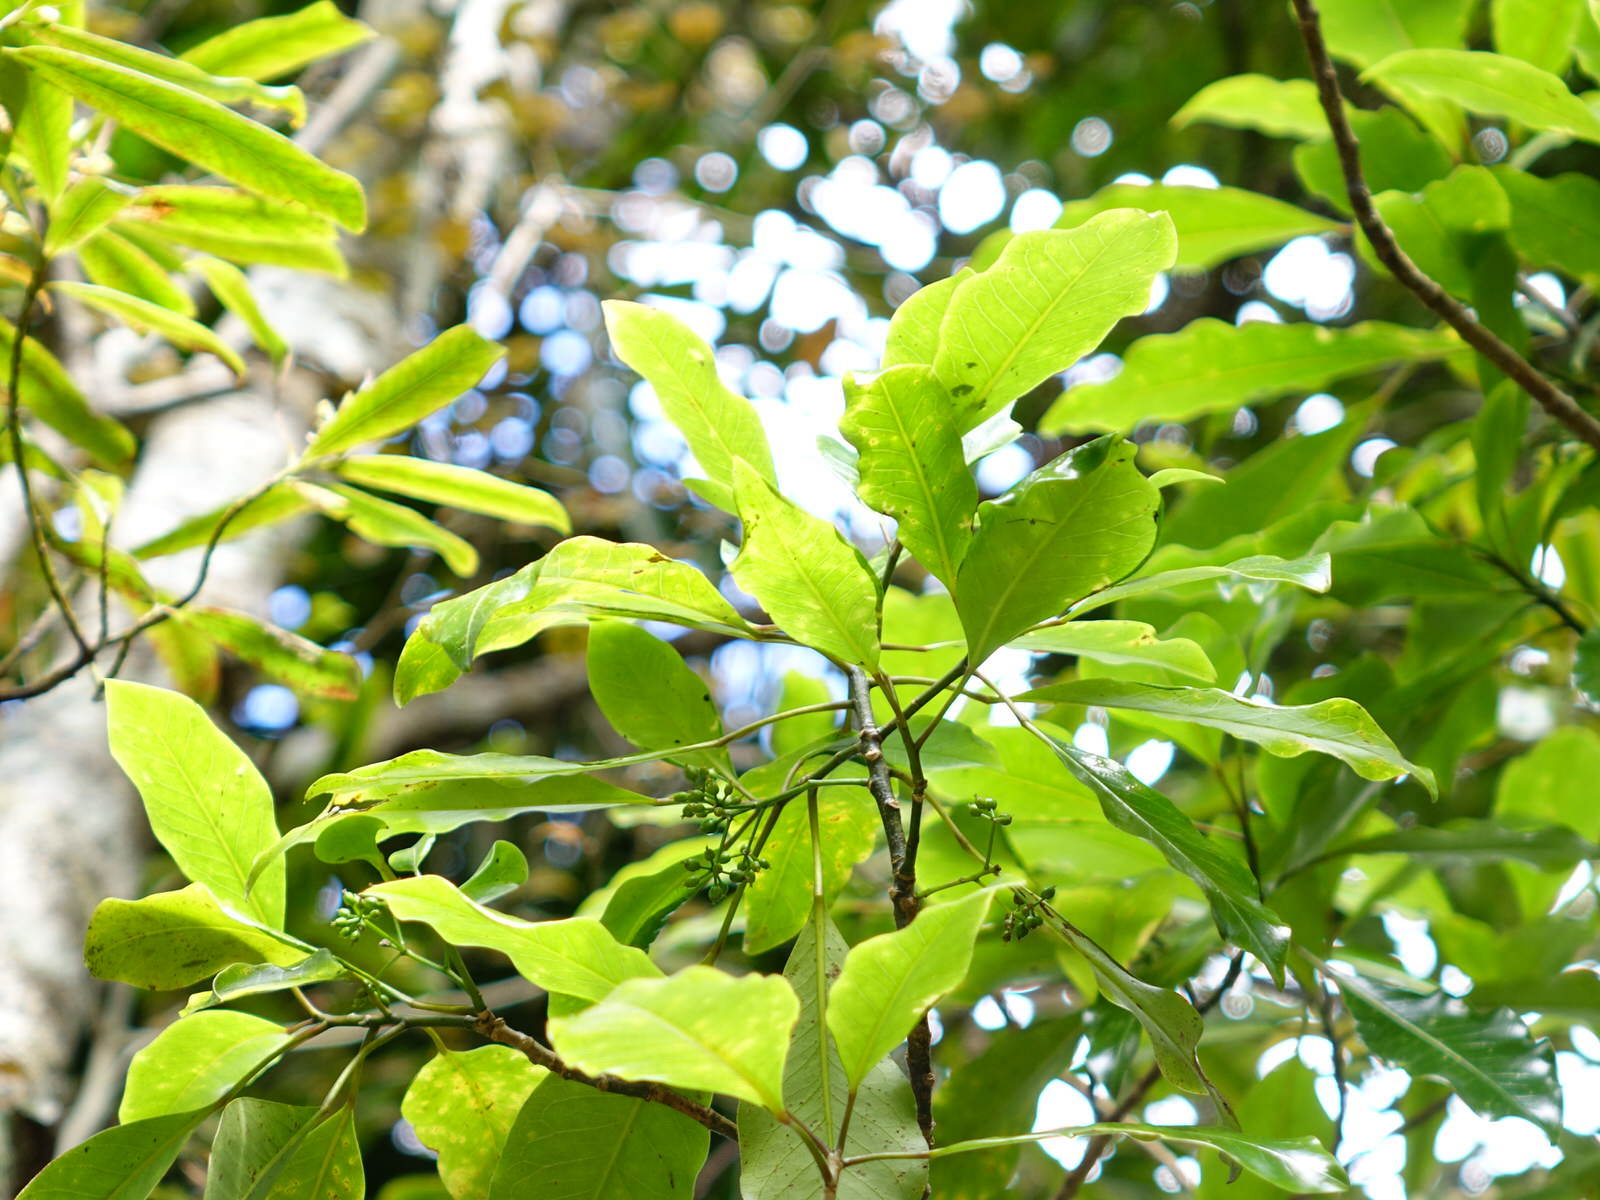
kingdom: Plantae
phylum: Tracheophyta
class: Magnoliopsida
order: Apiales
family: Araliaceae
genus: Raukaua
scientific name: Raukaua edgerleyi
